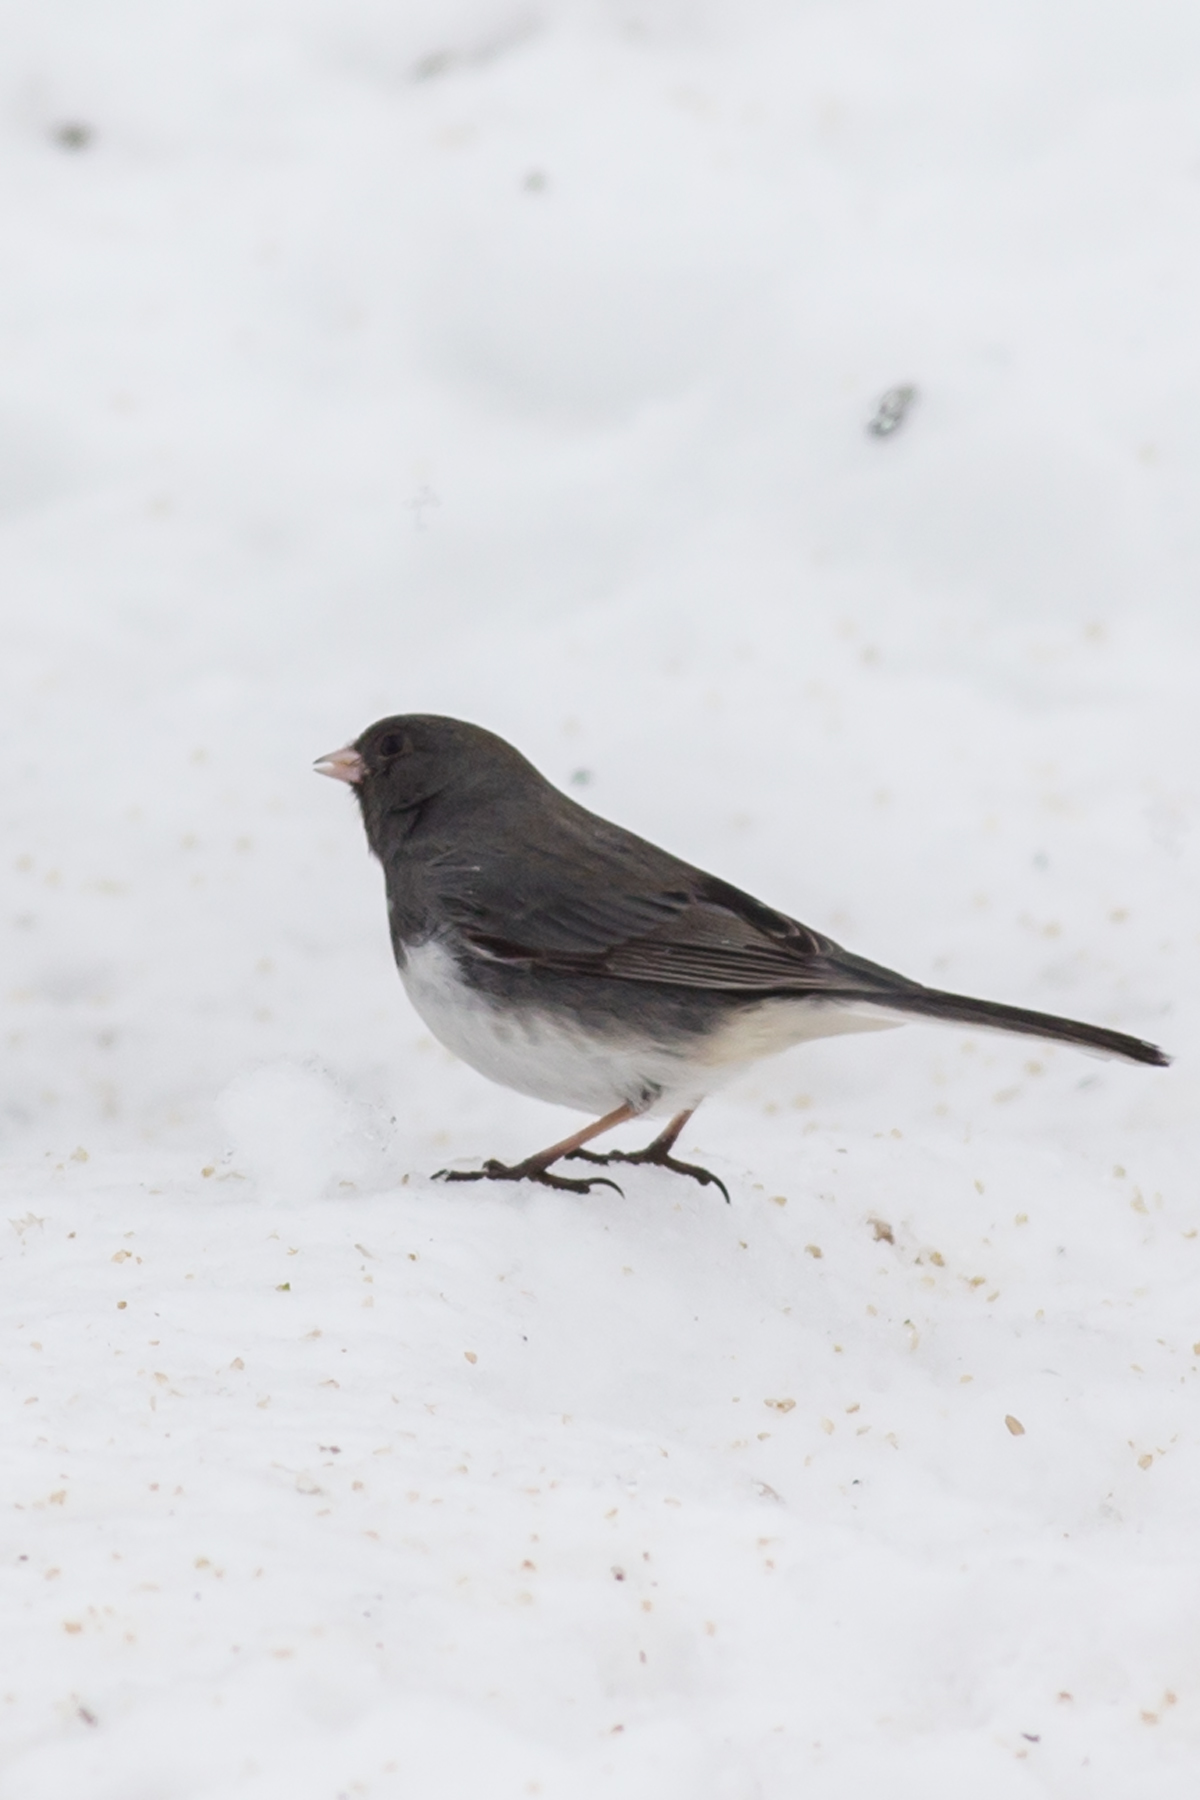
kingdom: Animalia
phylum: Chordata
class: Aves
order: Passeriformes
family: Passerellidae
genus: Junco
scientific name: Junco hyemalis
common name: Dark-eyed junco
